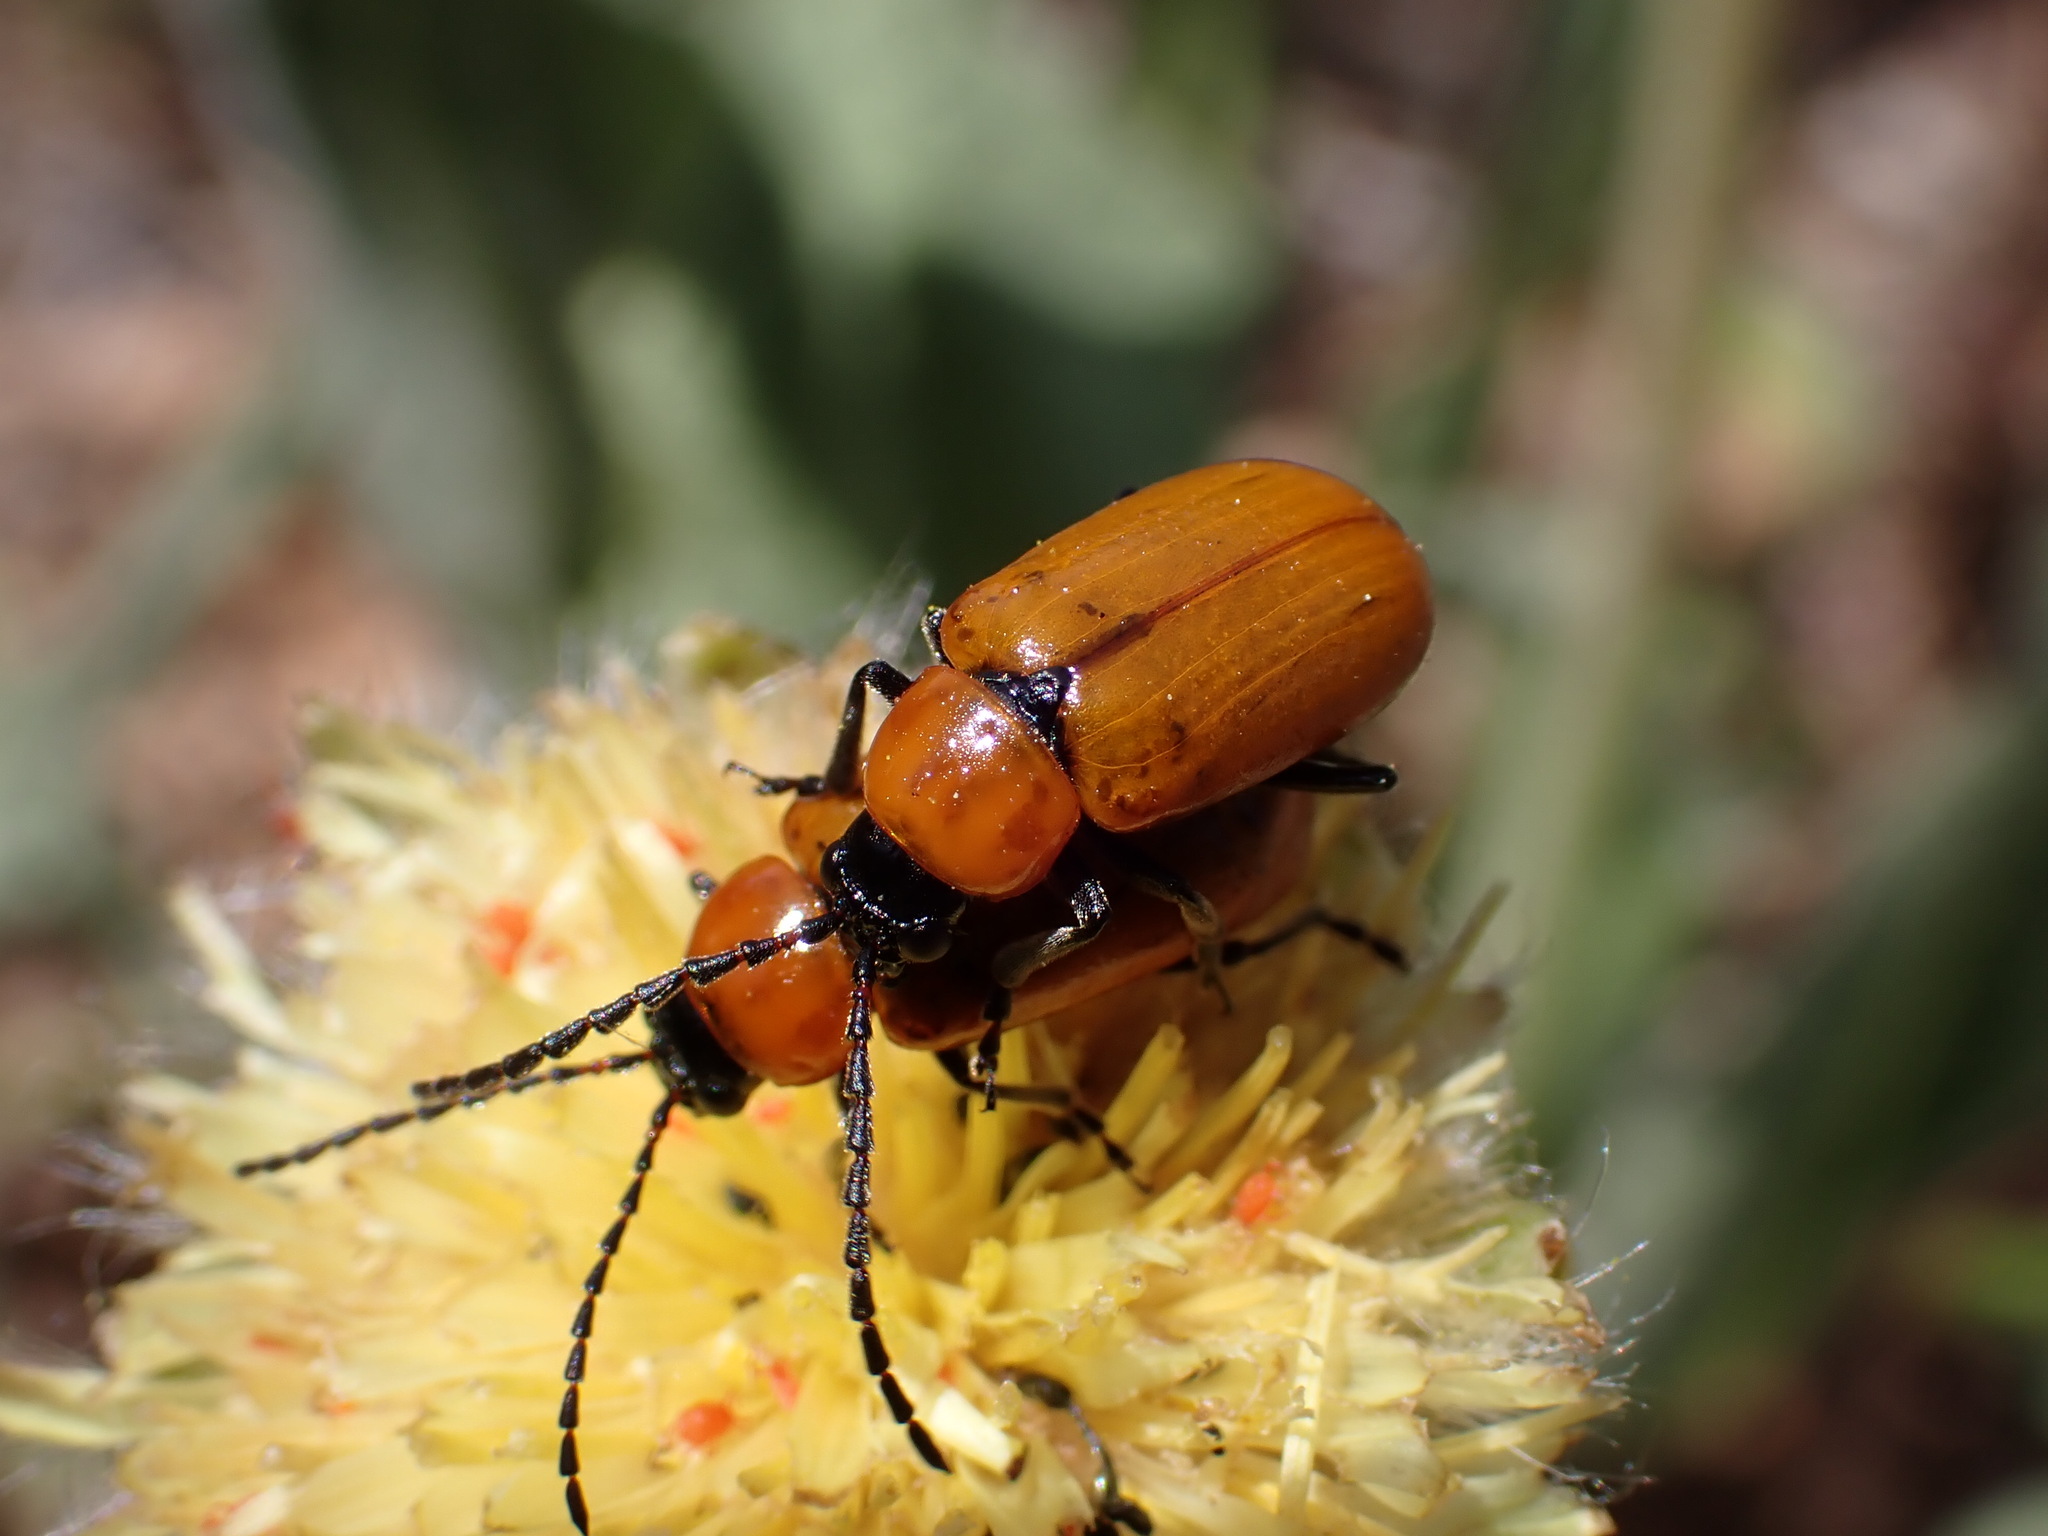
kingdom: Animalia
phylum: Arthropoda
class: Insecta
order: Coleoptera
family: Chrysomelidae
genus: Exosoma
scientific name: Exosoma lusitanicum
